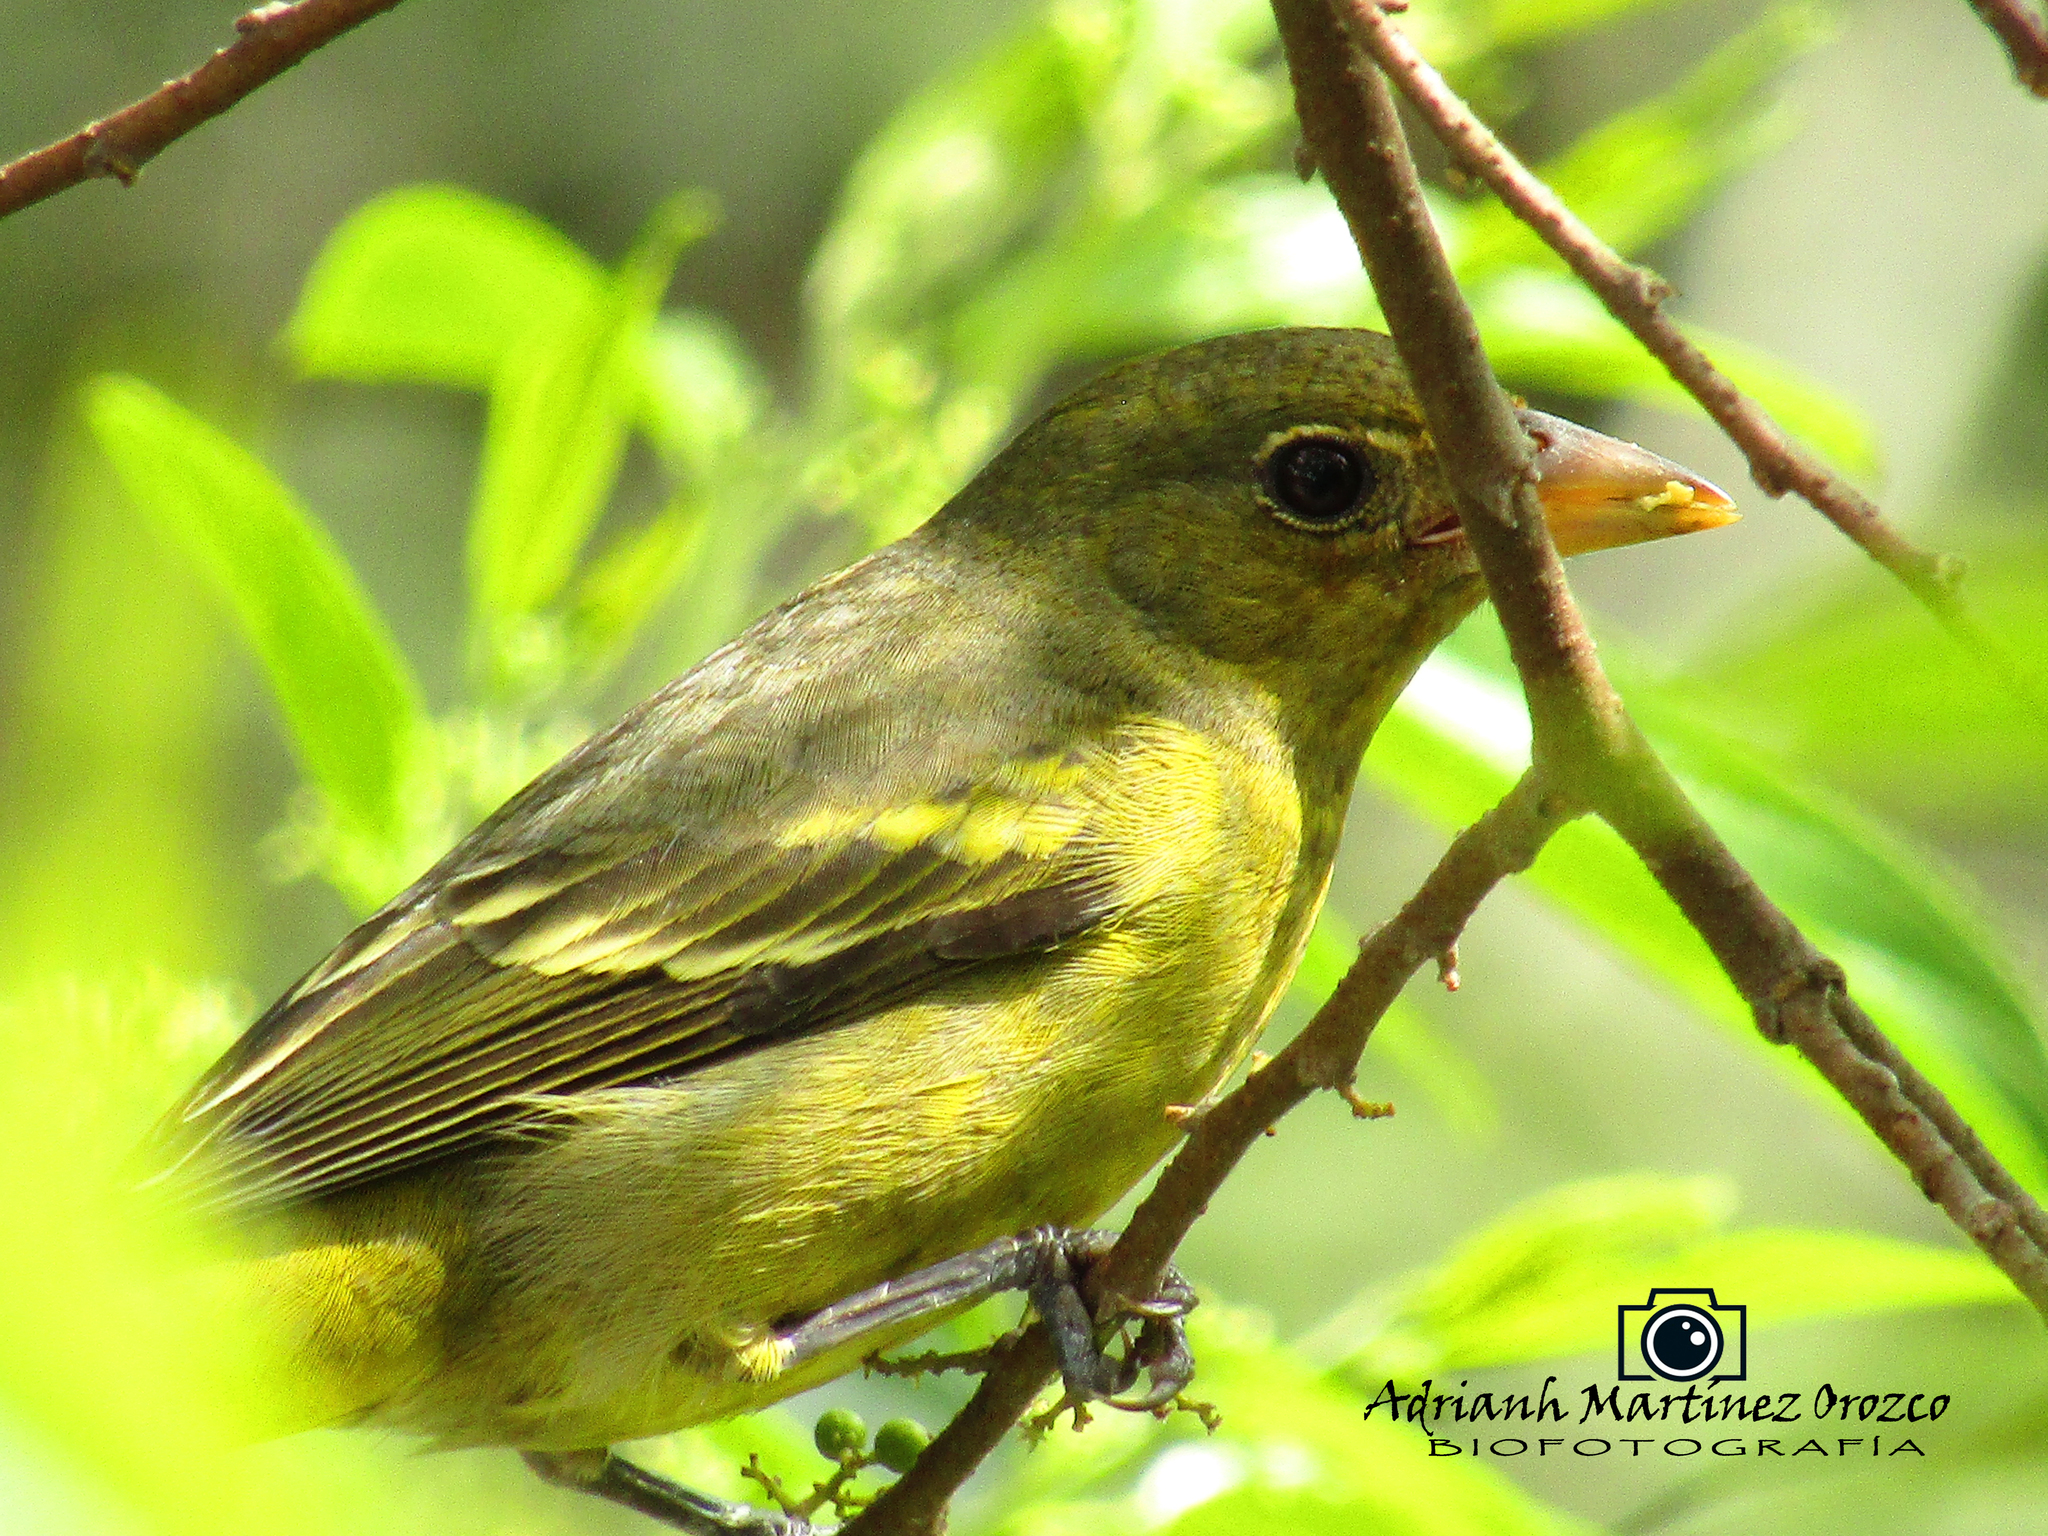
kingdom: Animalia
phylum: Chordata
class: Aves
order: Passeriformes
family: Cardinalidae
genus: Piranga
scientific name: Piranga ludoviciana
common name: Western tanager
